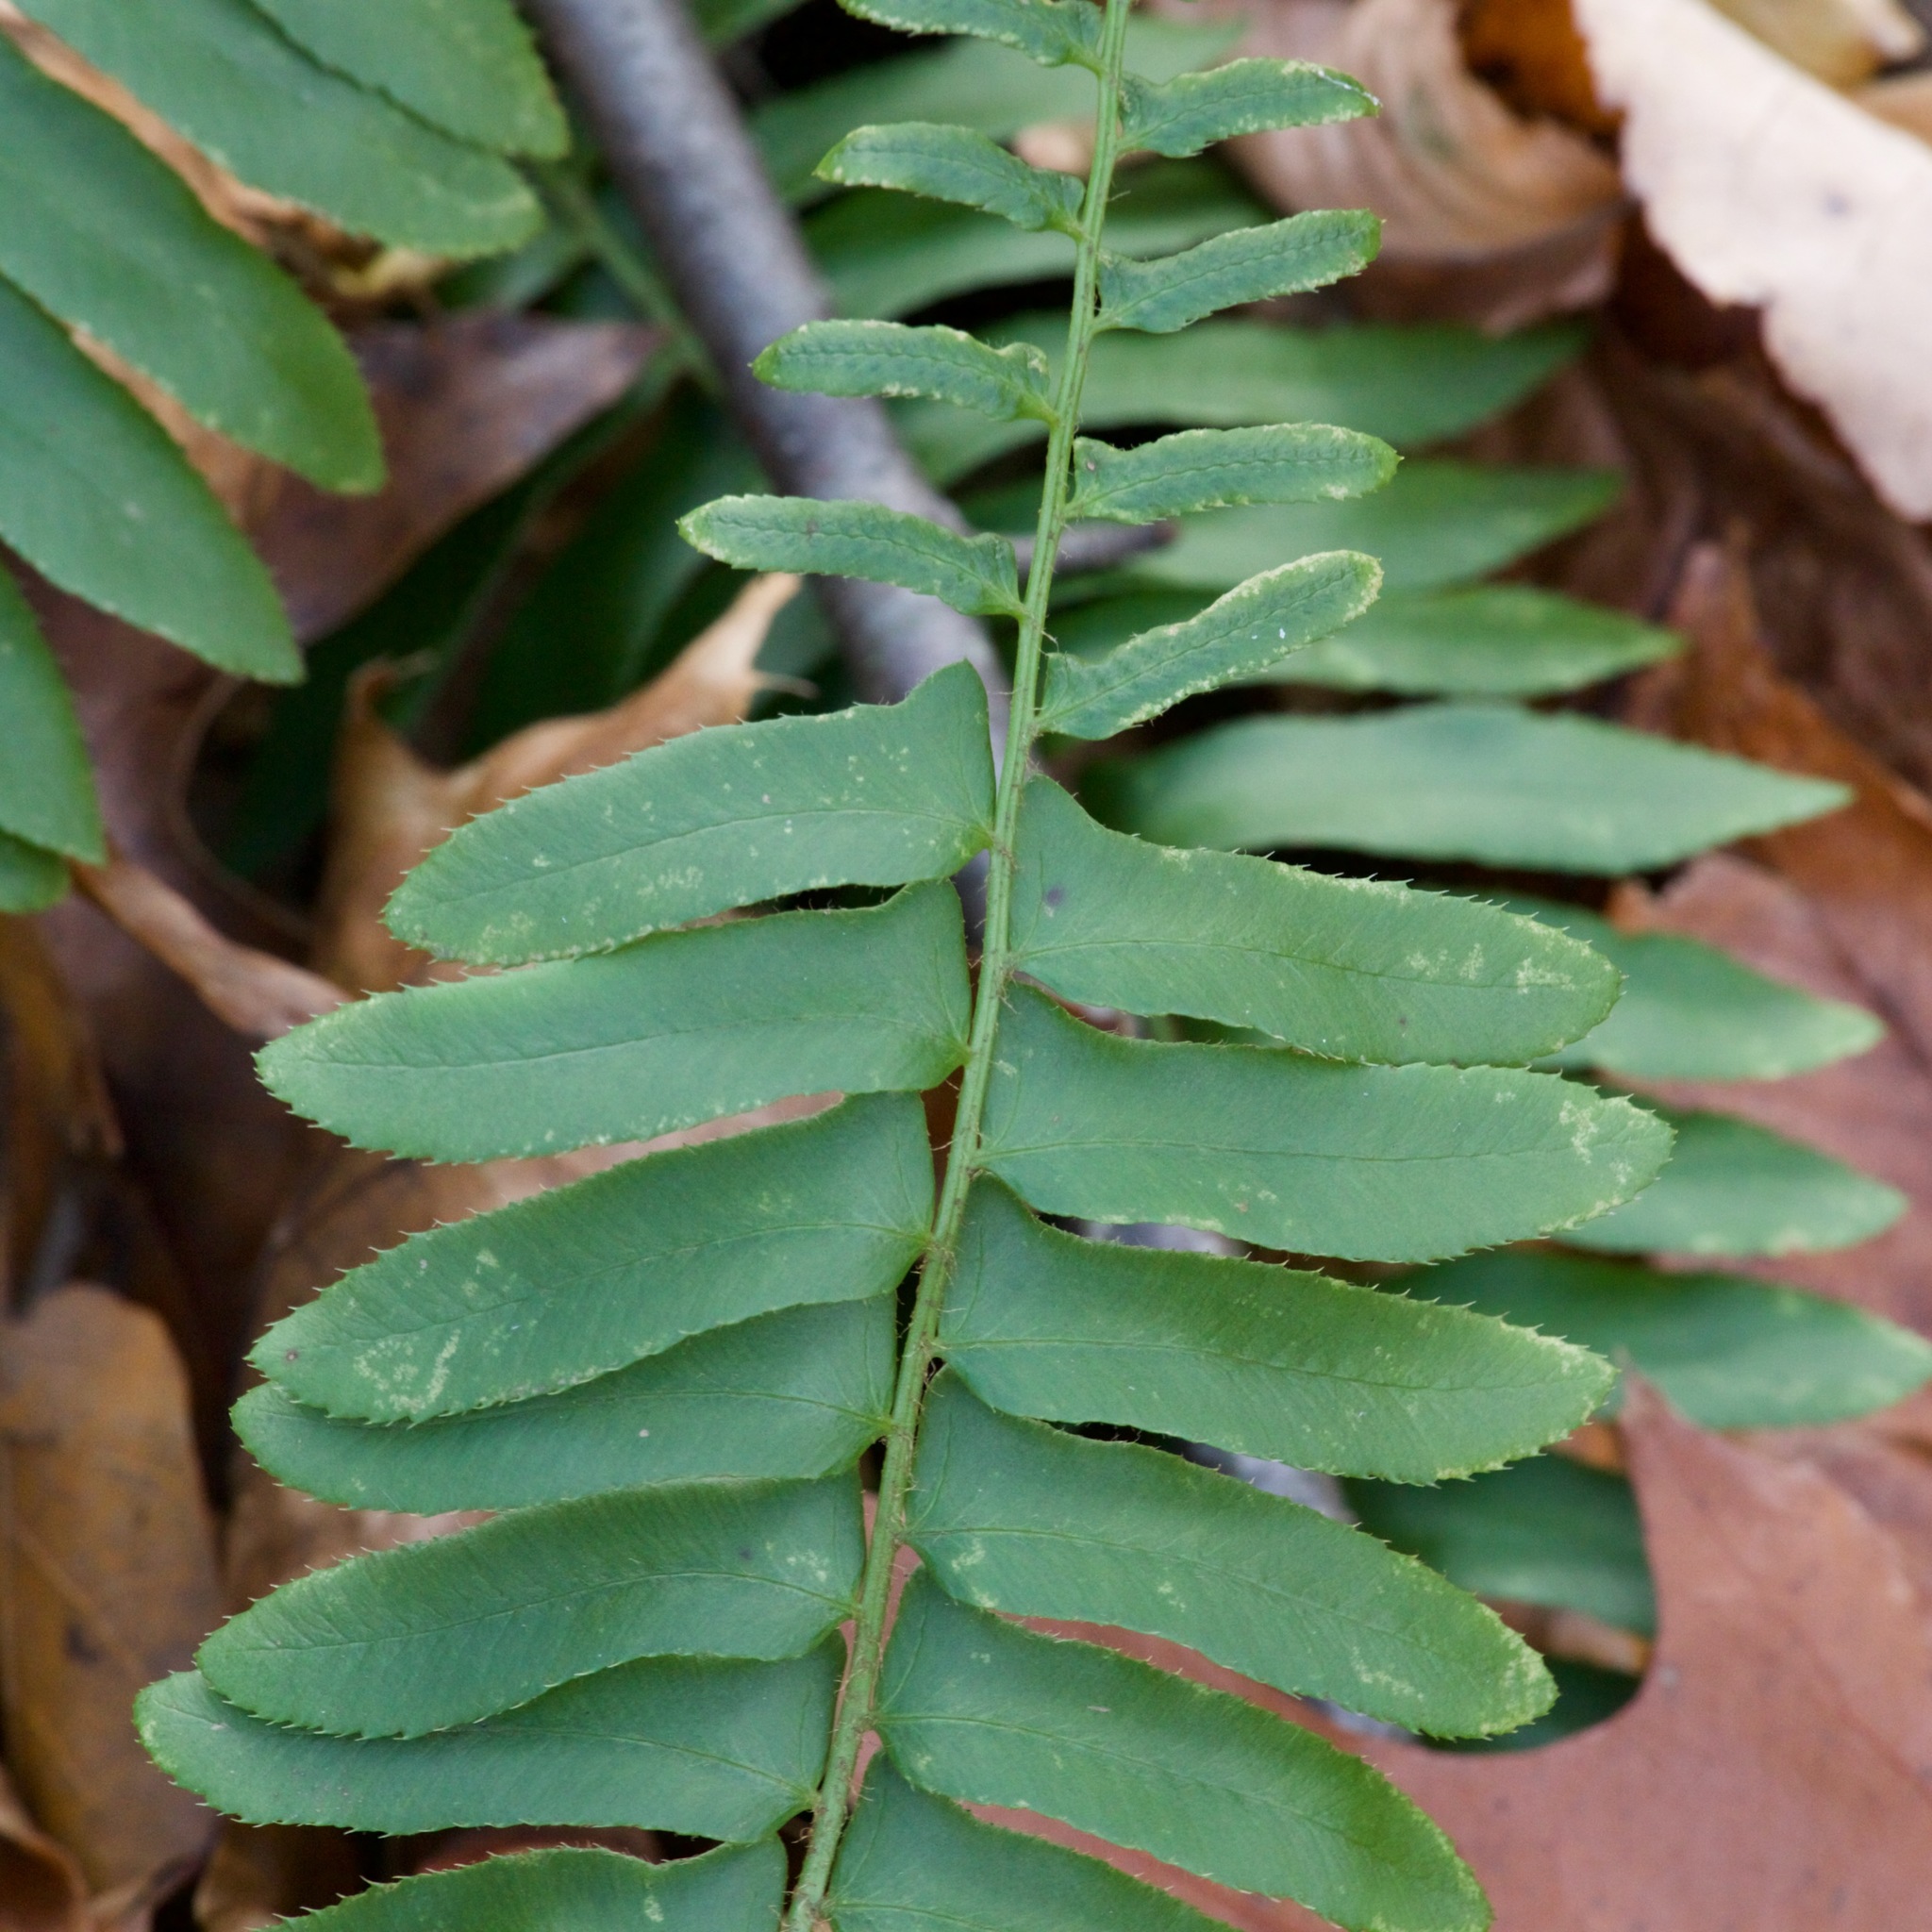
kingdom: Plantae
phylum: Tracheophyta
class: Polypodiopsida
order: Polypodiales
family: Dryopteridaceae
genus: Polystichum
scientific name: Polystichum acrostichoides
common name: Christmas fern
